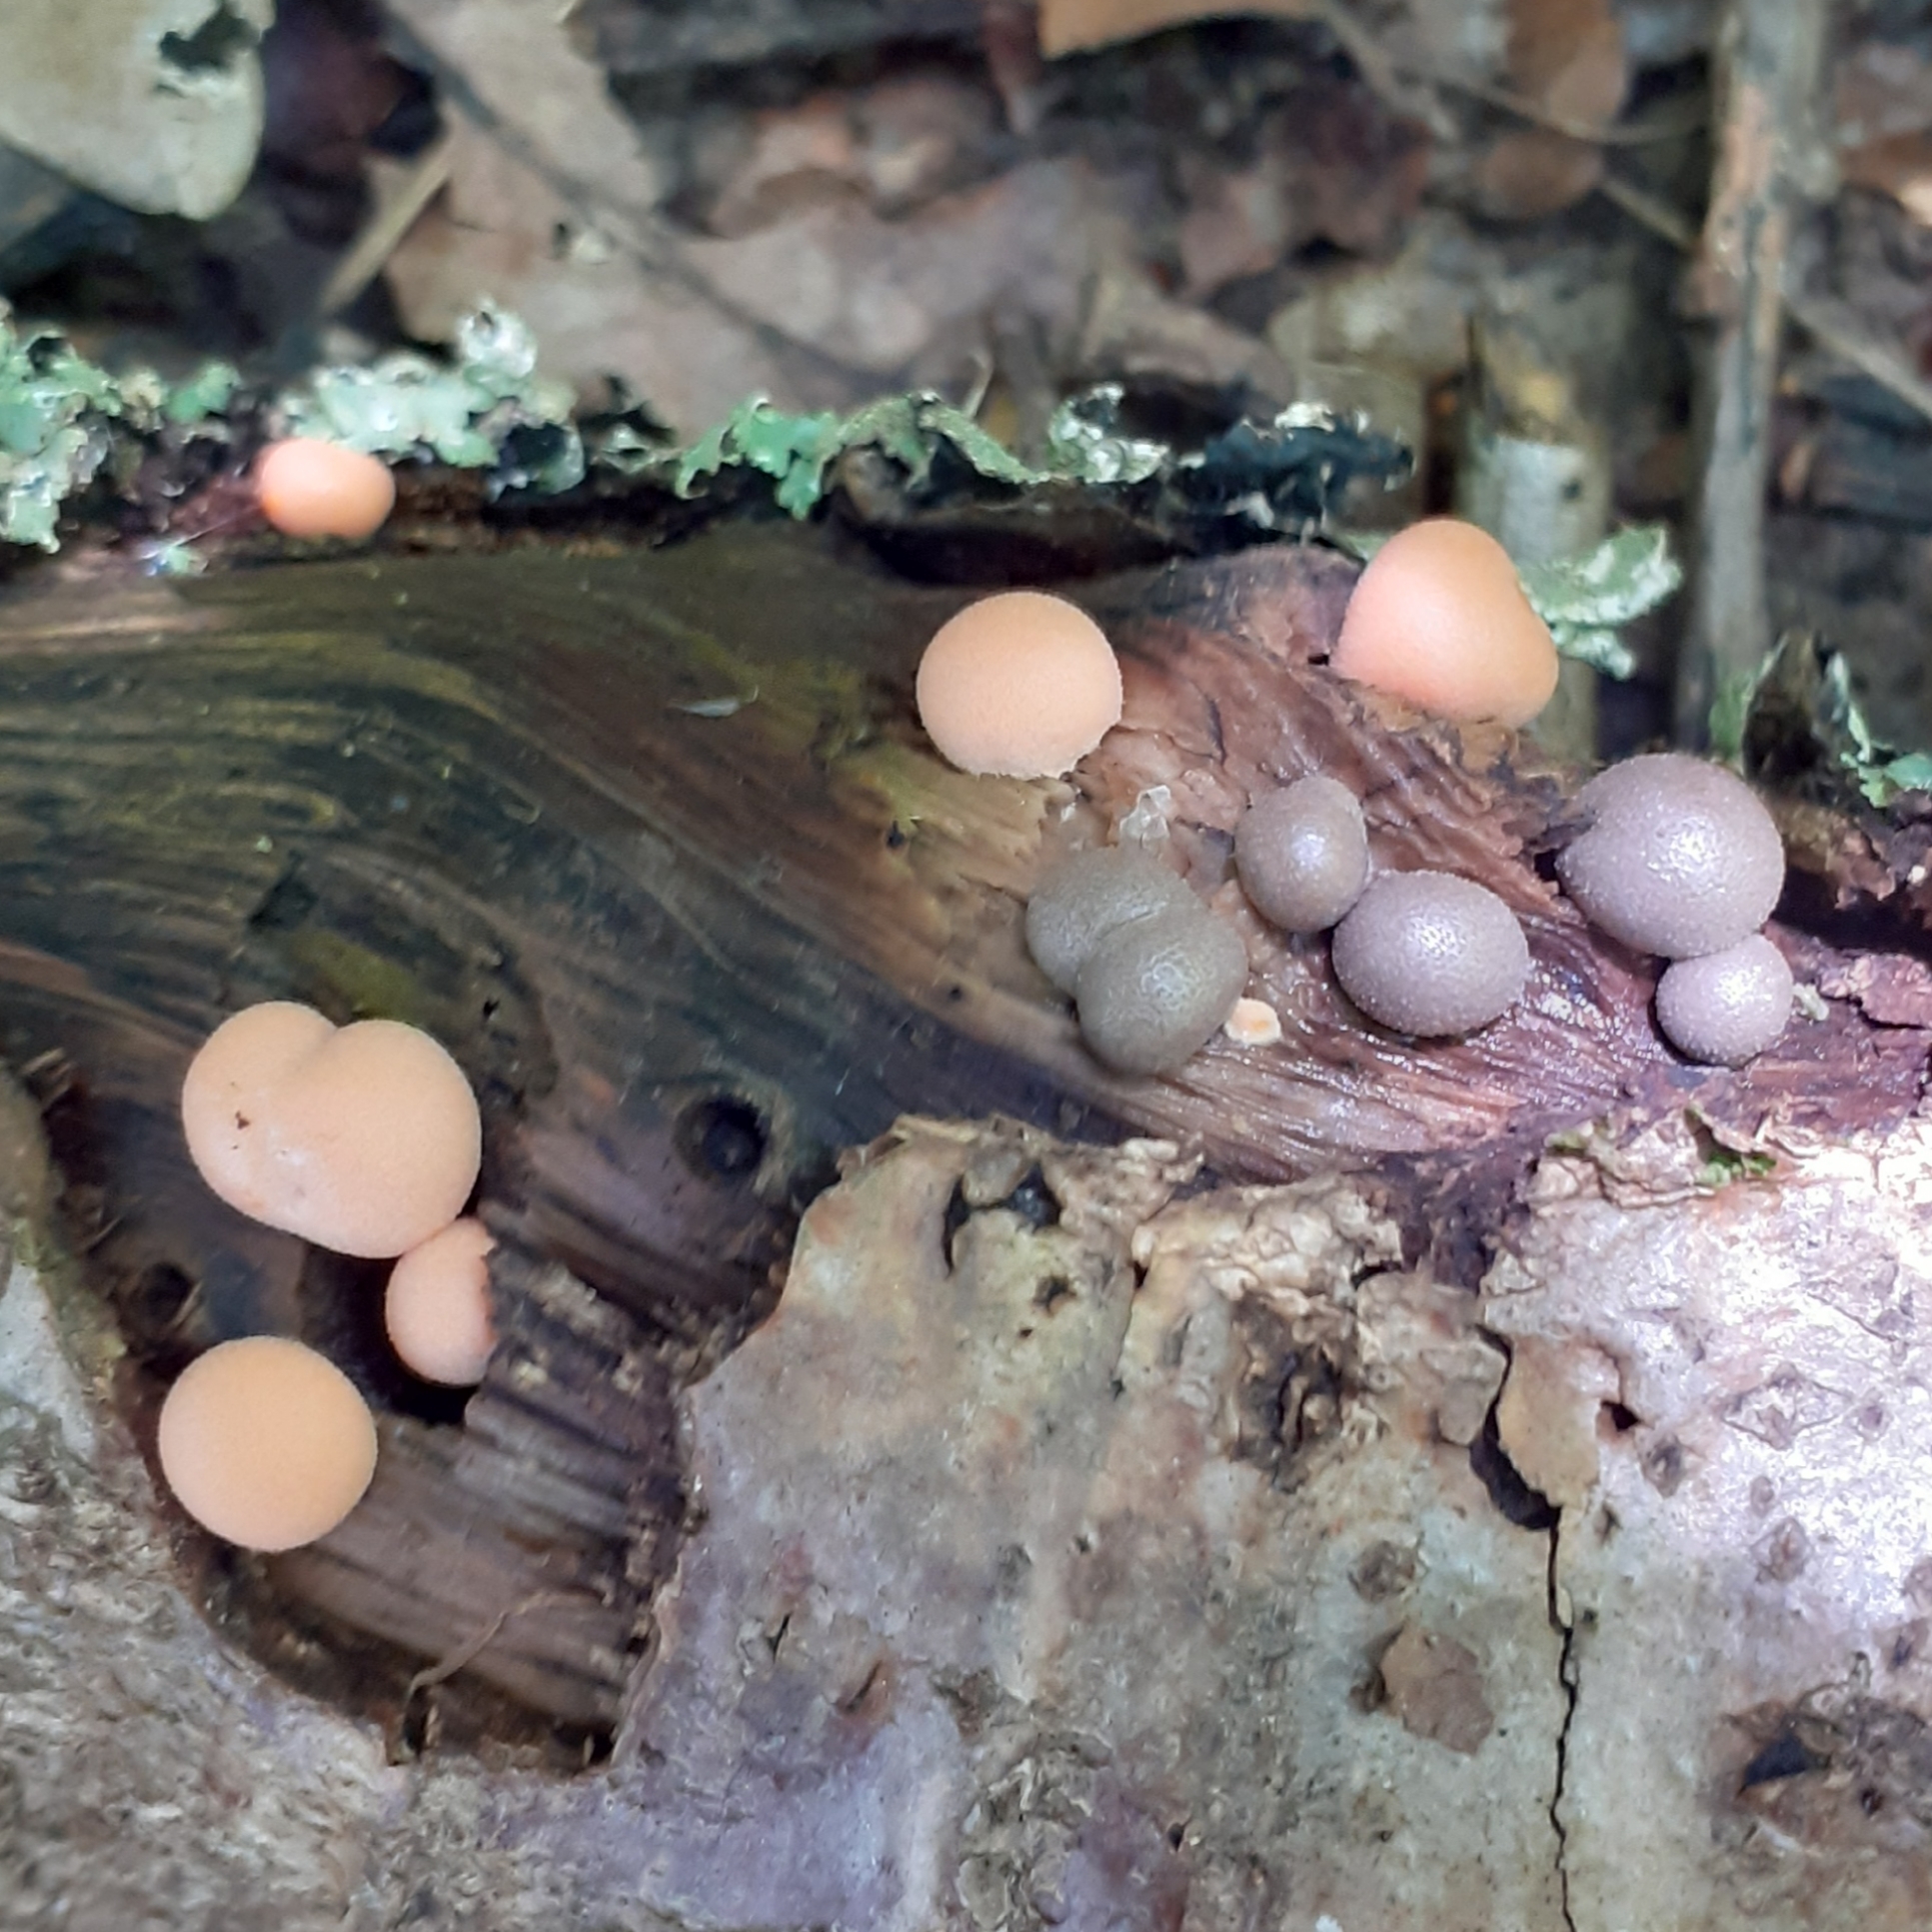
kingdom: Protozoa
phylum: Mycetozoa
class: Myxomycetes
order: Cribrariales
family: Tubiferaceae
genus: Lycogala
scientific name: Lycogala epidendrum
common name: Wolf's milk
